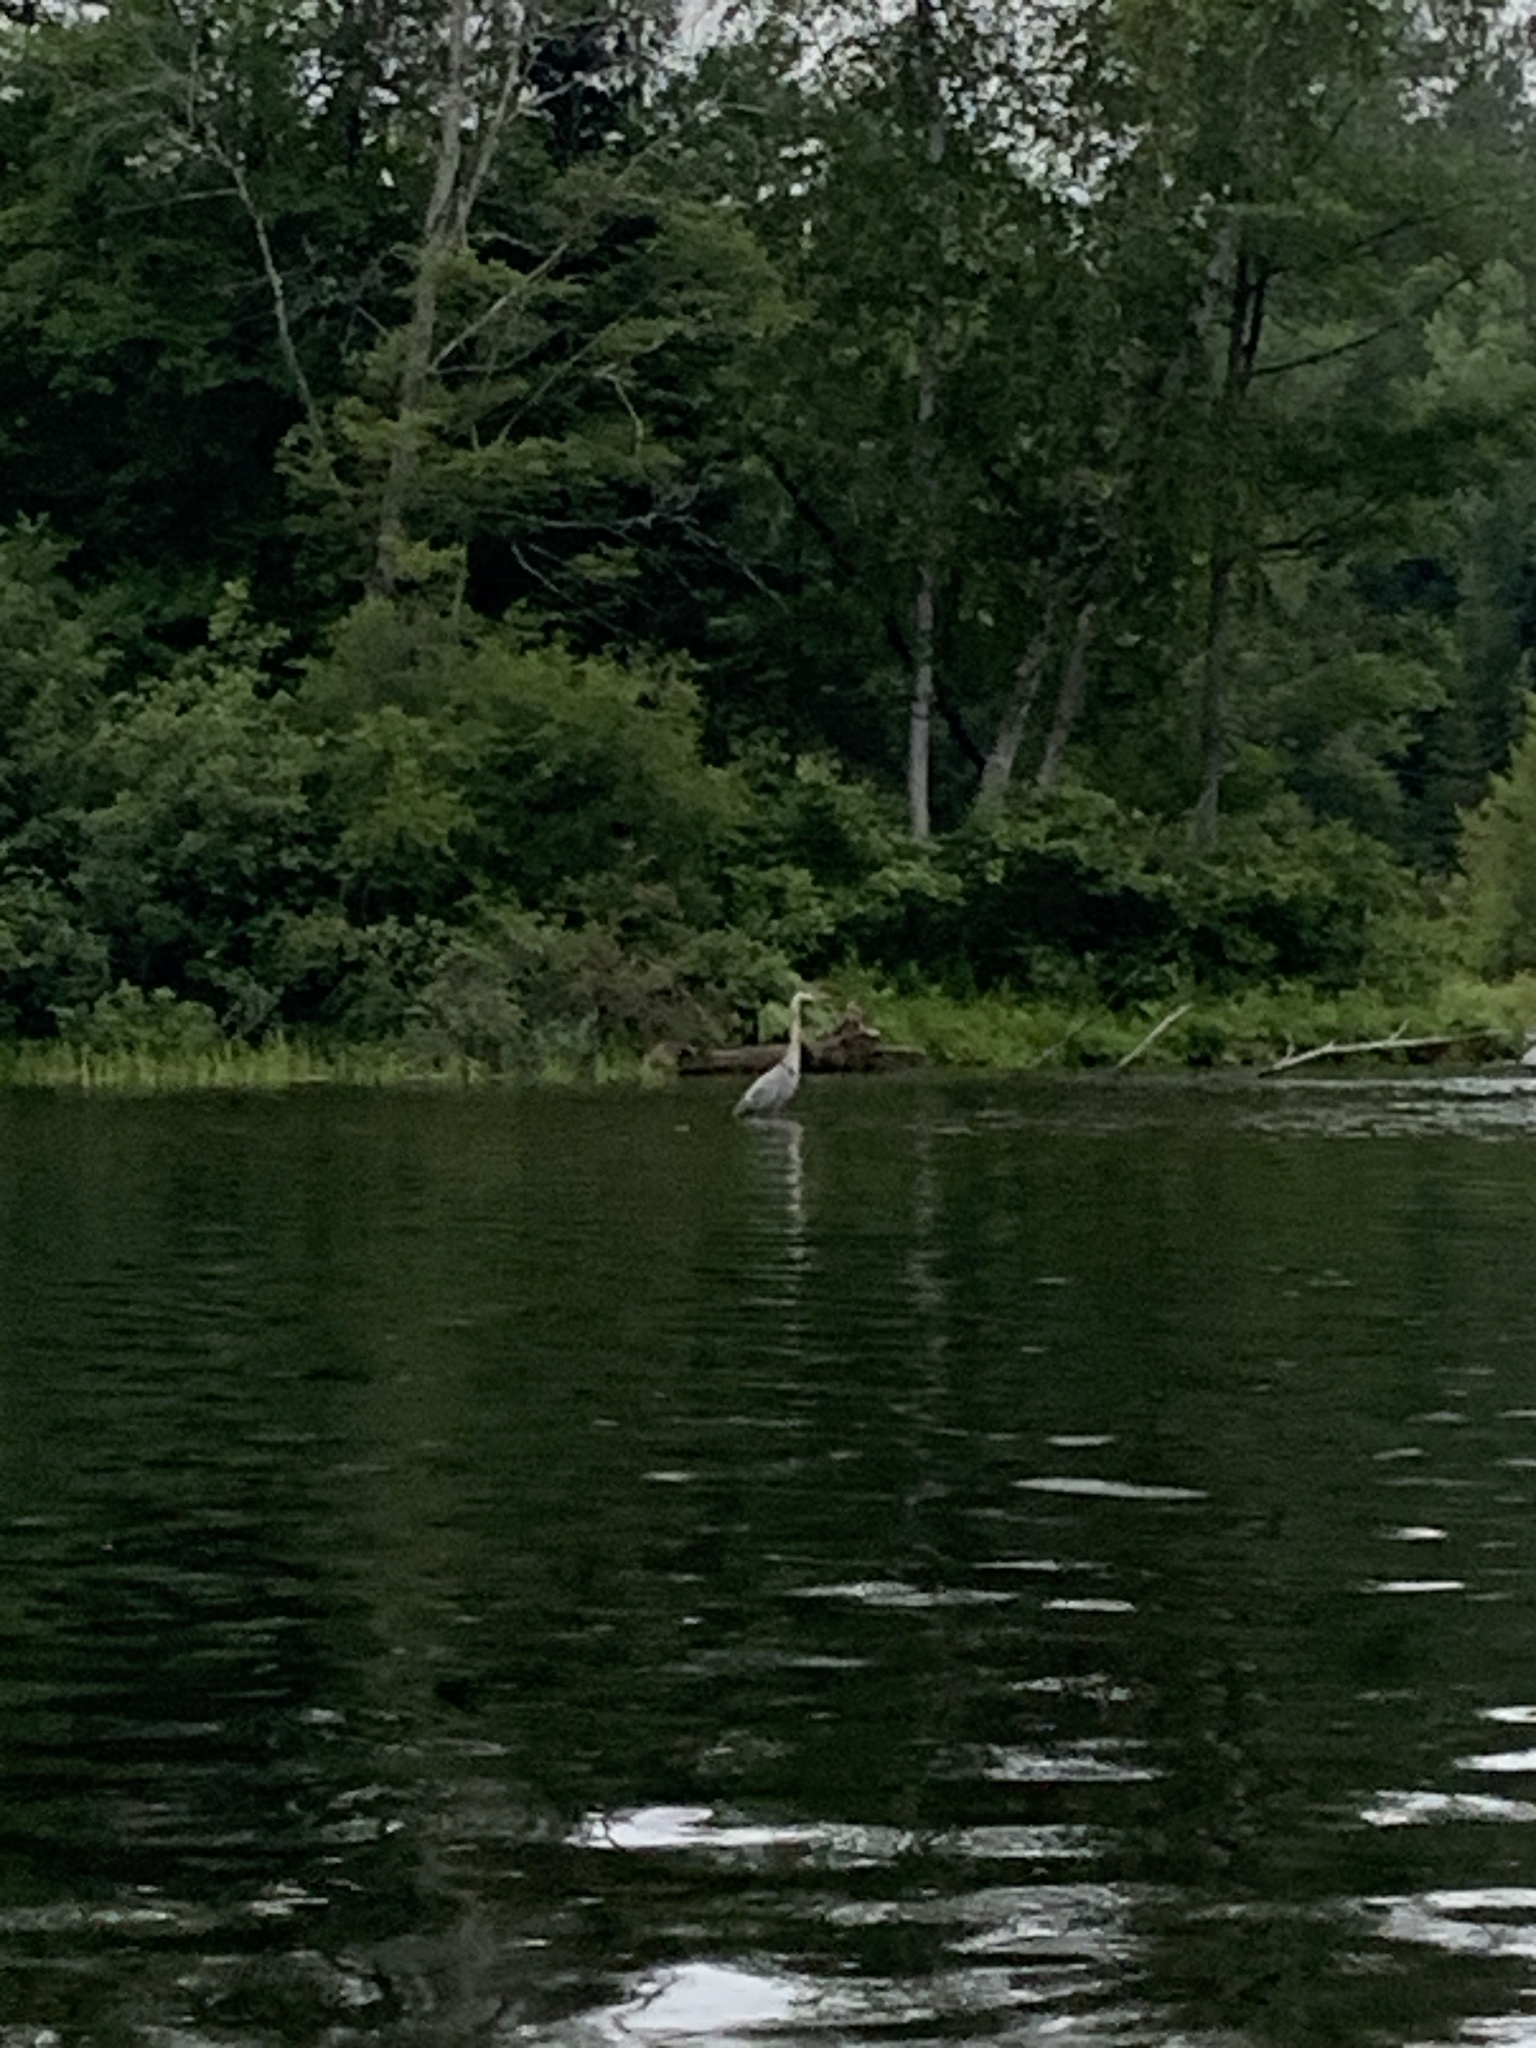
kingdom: Animalia
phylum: Chordata
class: Aves
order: Pelecaniformes
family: Ardeidae
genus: Ardea
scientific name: Ardea herodias
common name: Great blue heron
